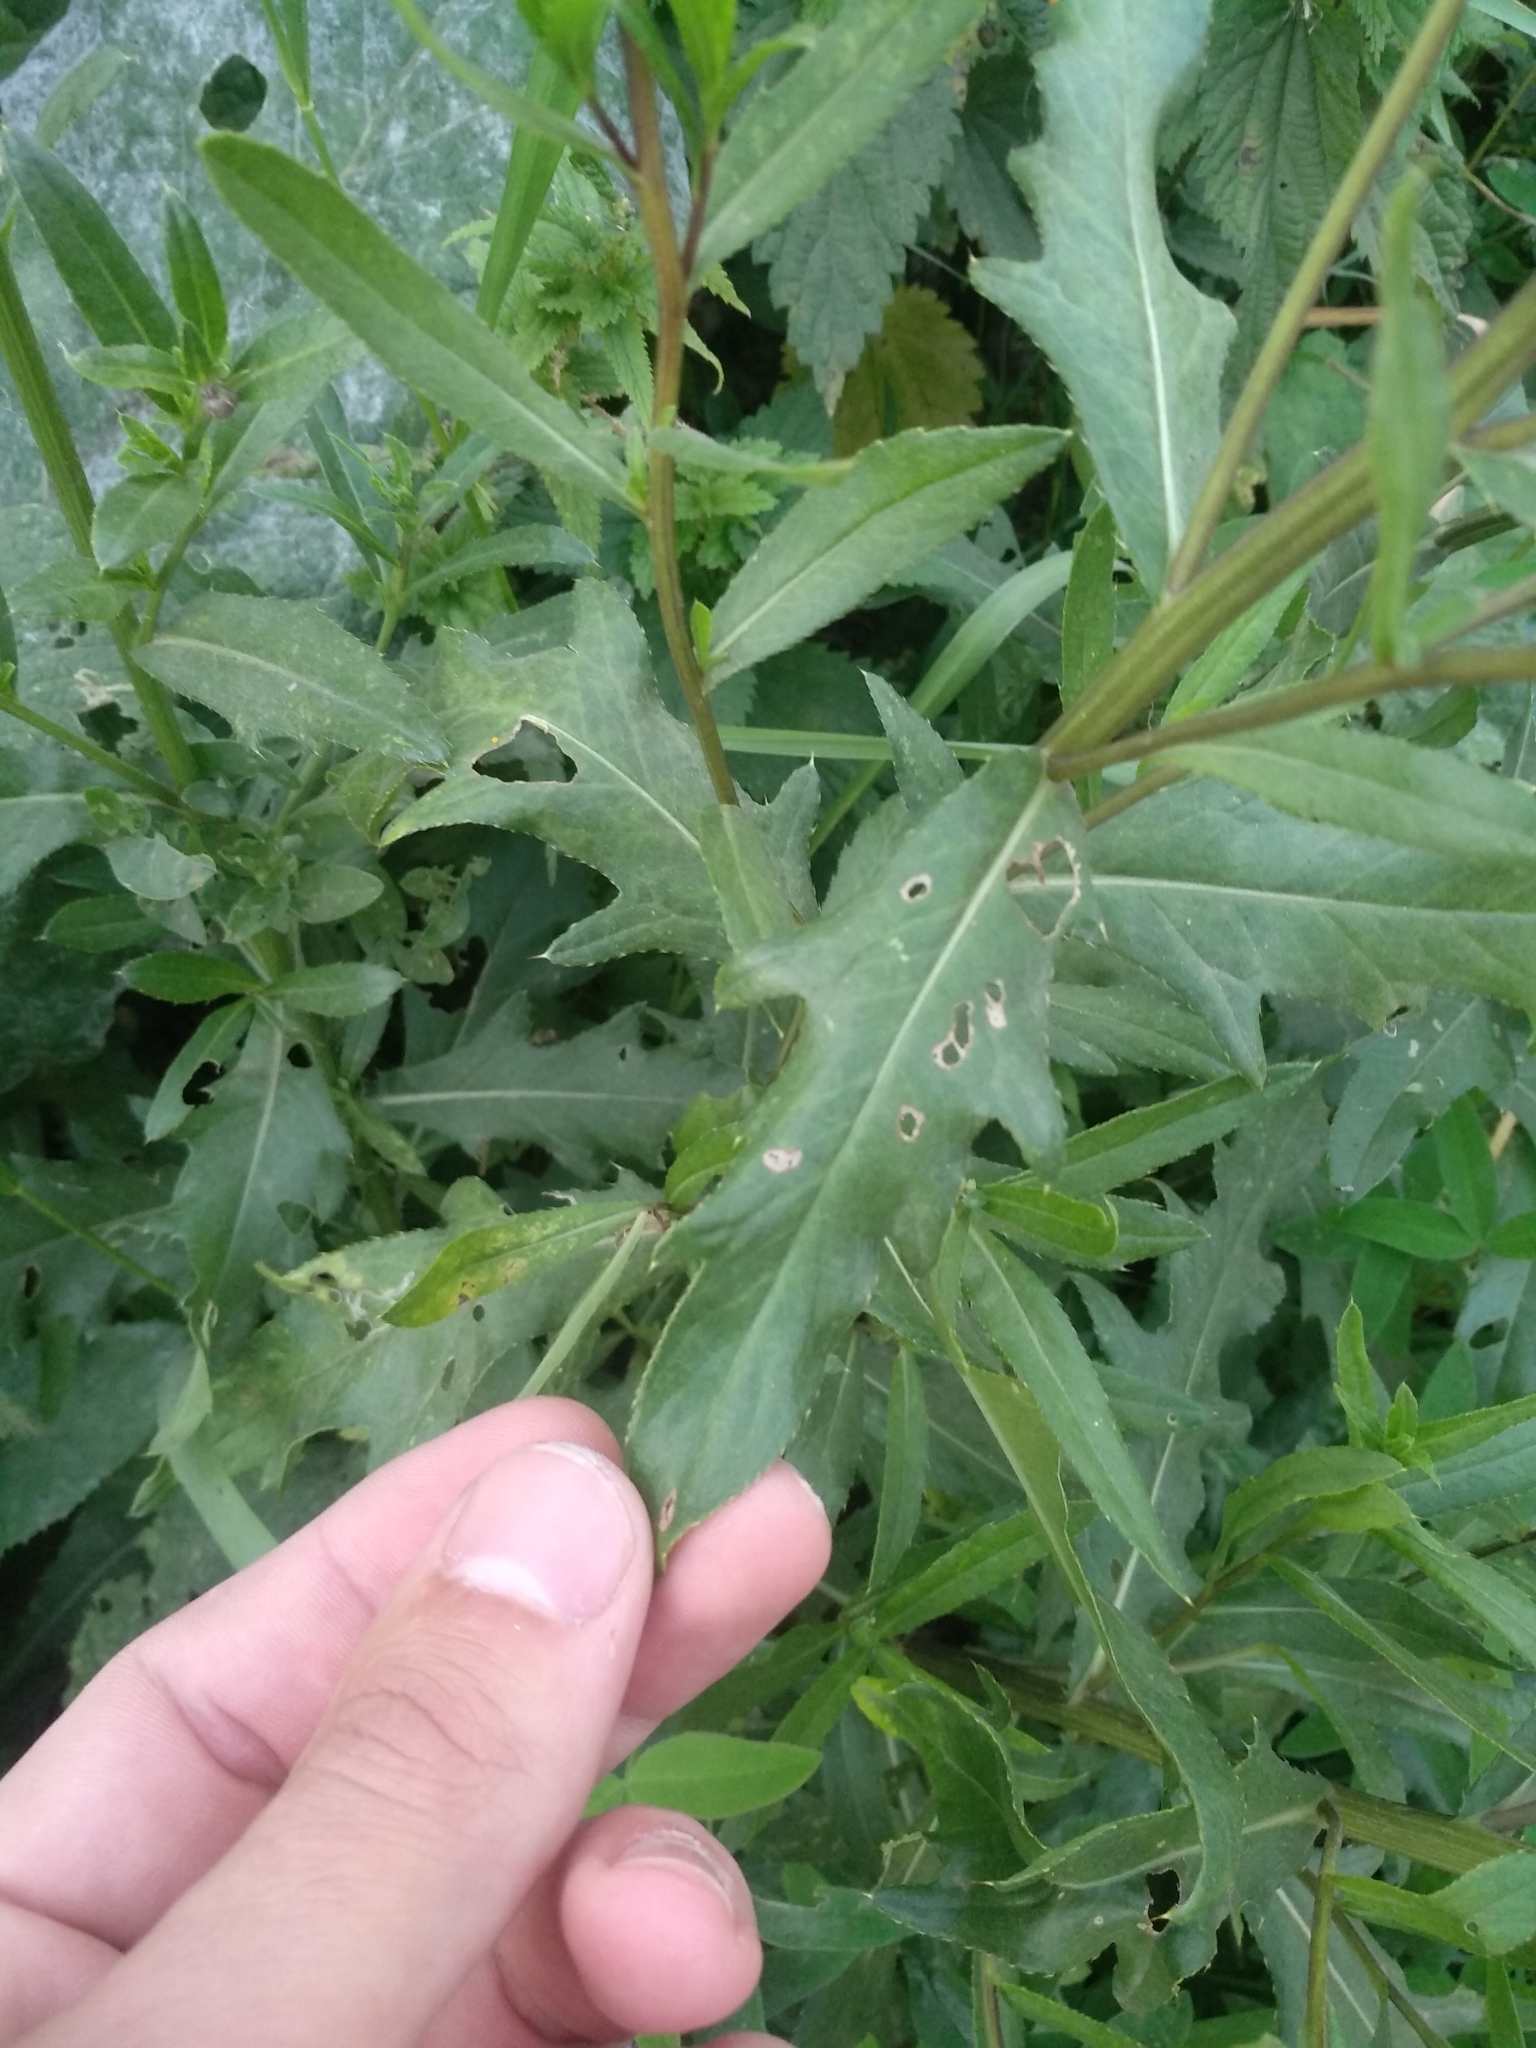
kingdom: Plantae
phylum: Tracheophyta
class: Magnoliopsida
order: Asterales
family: Asteraceae
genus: Cirsium
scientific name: Cirsium arvense
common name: Creeping thistle
